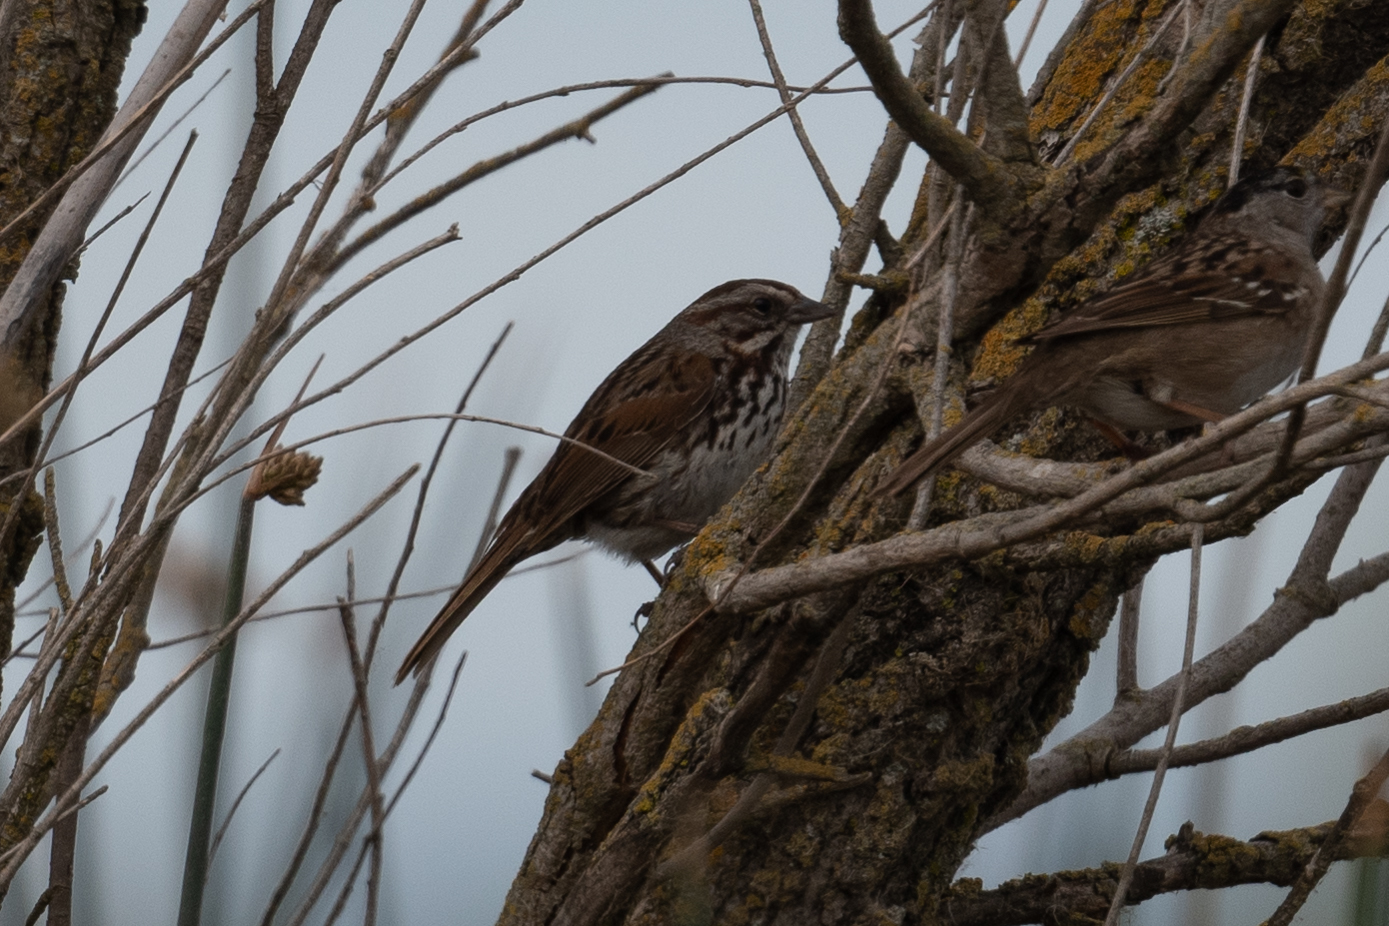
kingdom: Animalia
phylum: Chordata
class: Aves
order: Passeriformes
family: Passerellidae
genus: Melospiza
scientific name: Melospiza melodia
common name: Song sparrow
